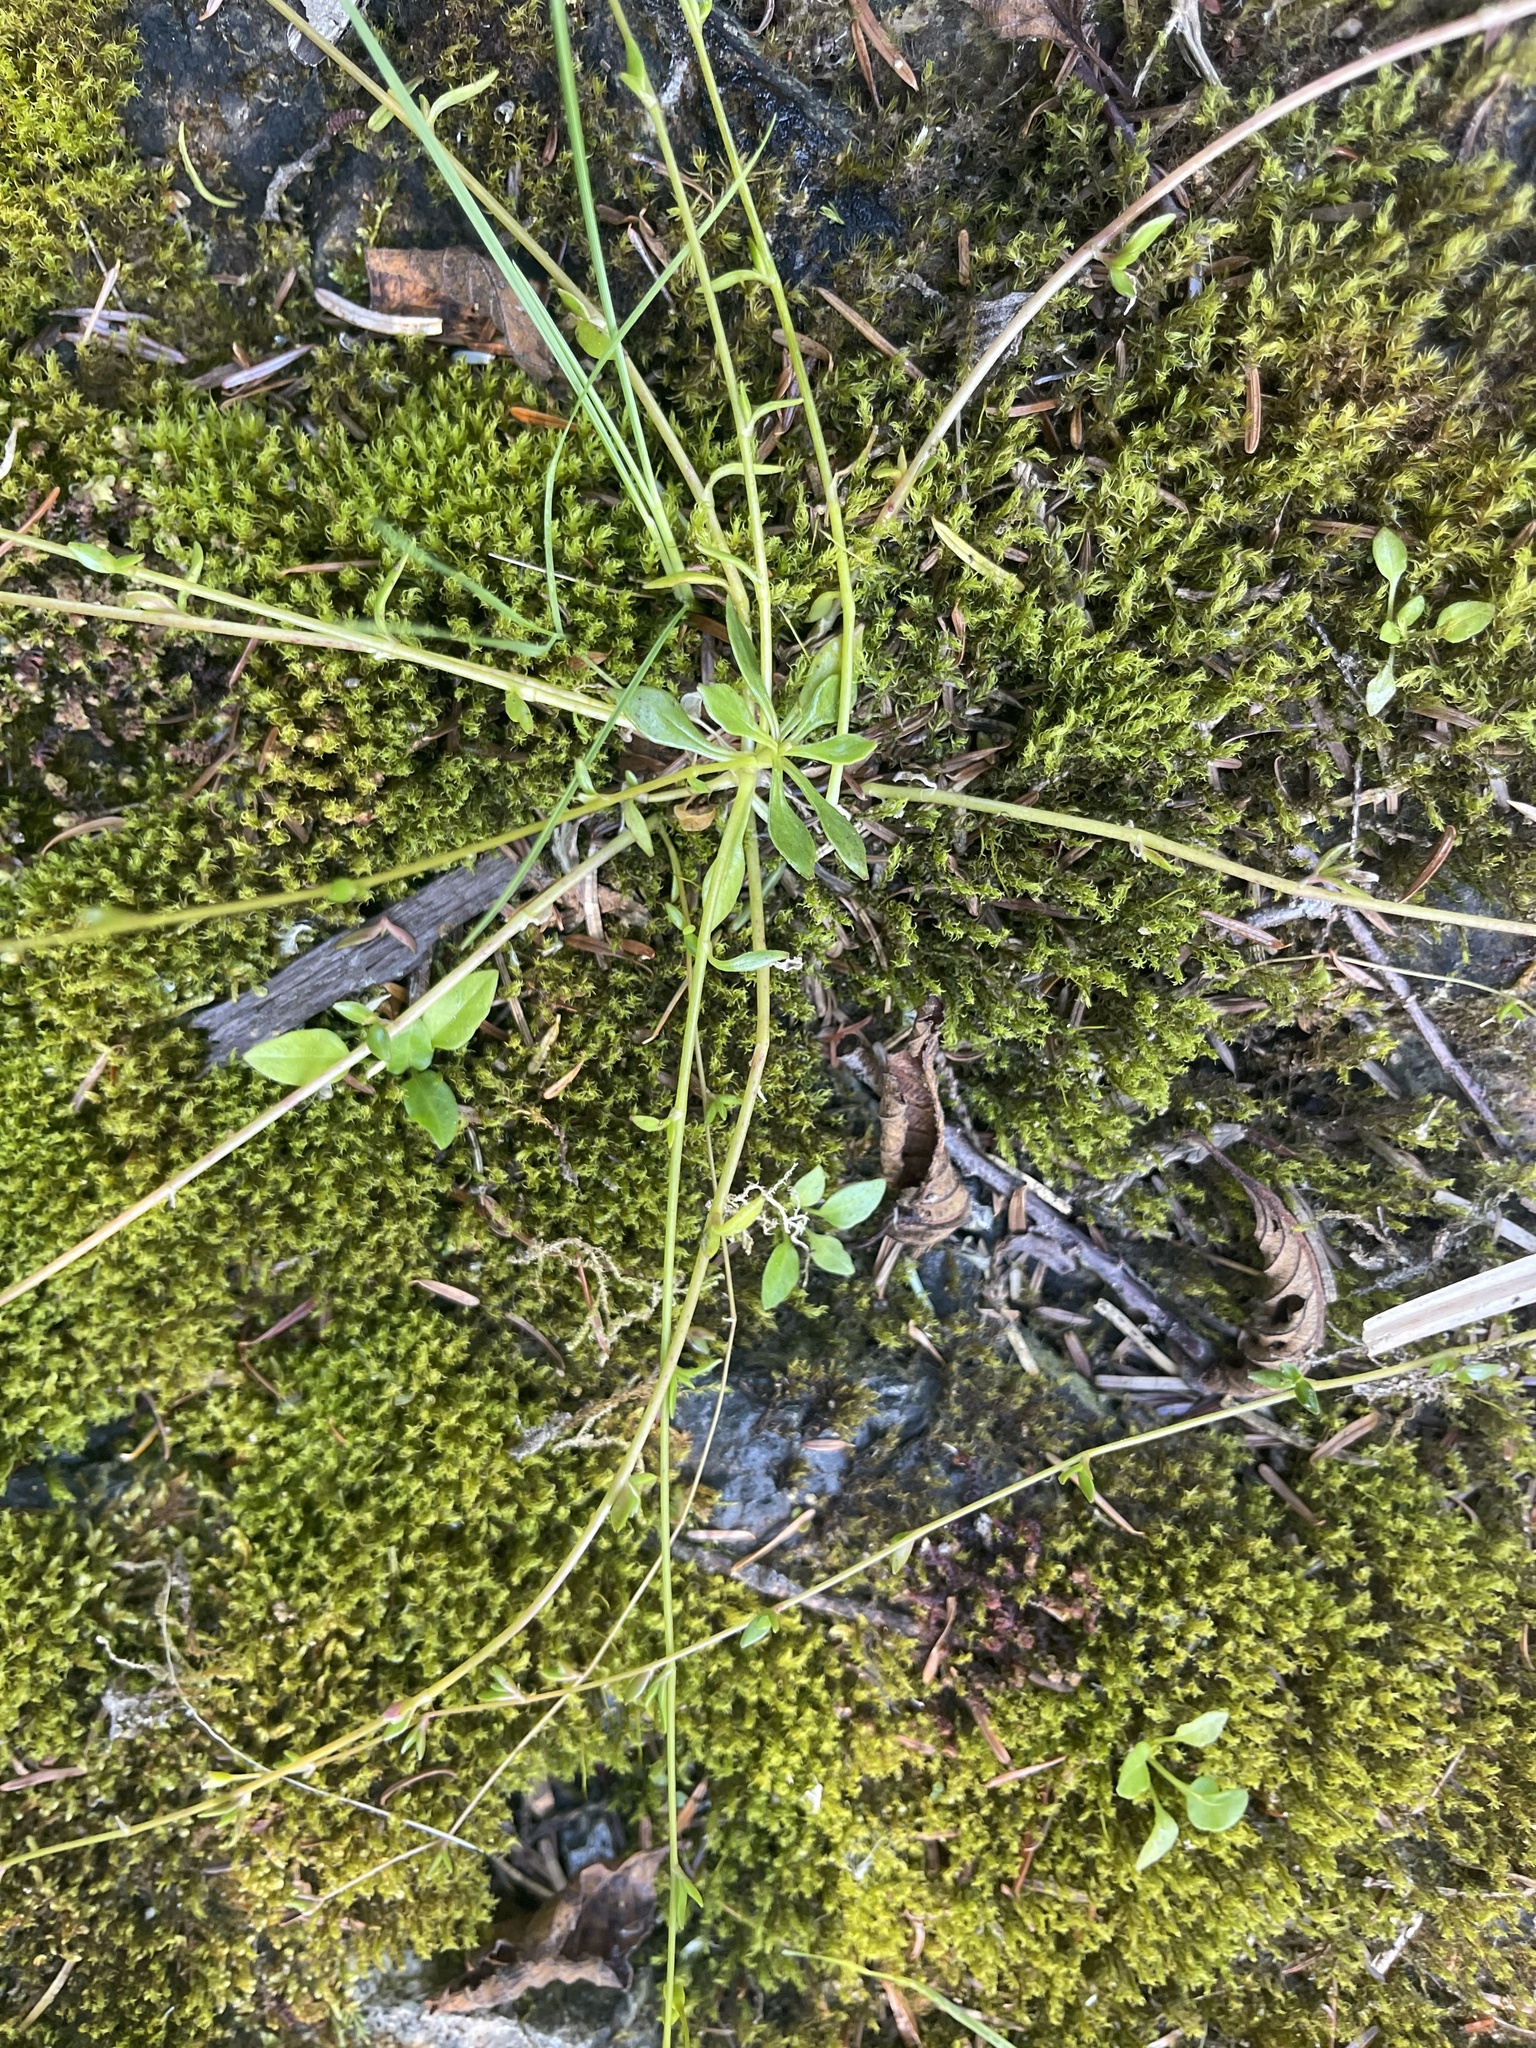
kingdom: Plantae
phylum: Tracheophyta
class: Magnoliopsida
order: Caryophyllales
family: Montiaceae
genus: Montia
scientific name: Montia parvifolia
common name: Small-leaved blinks
